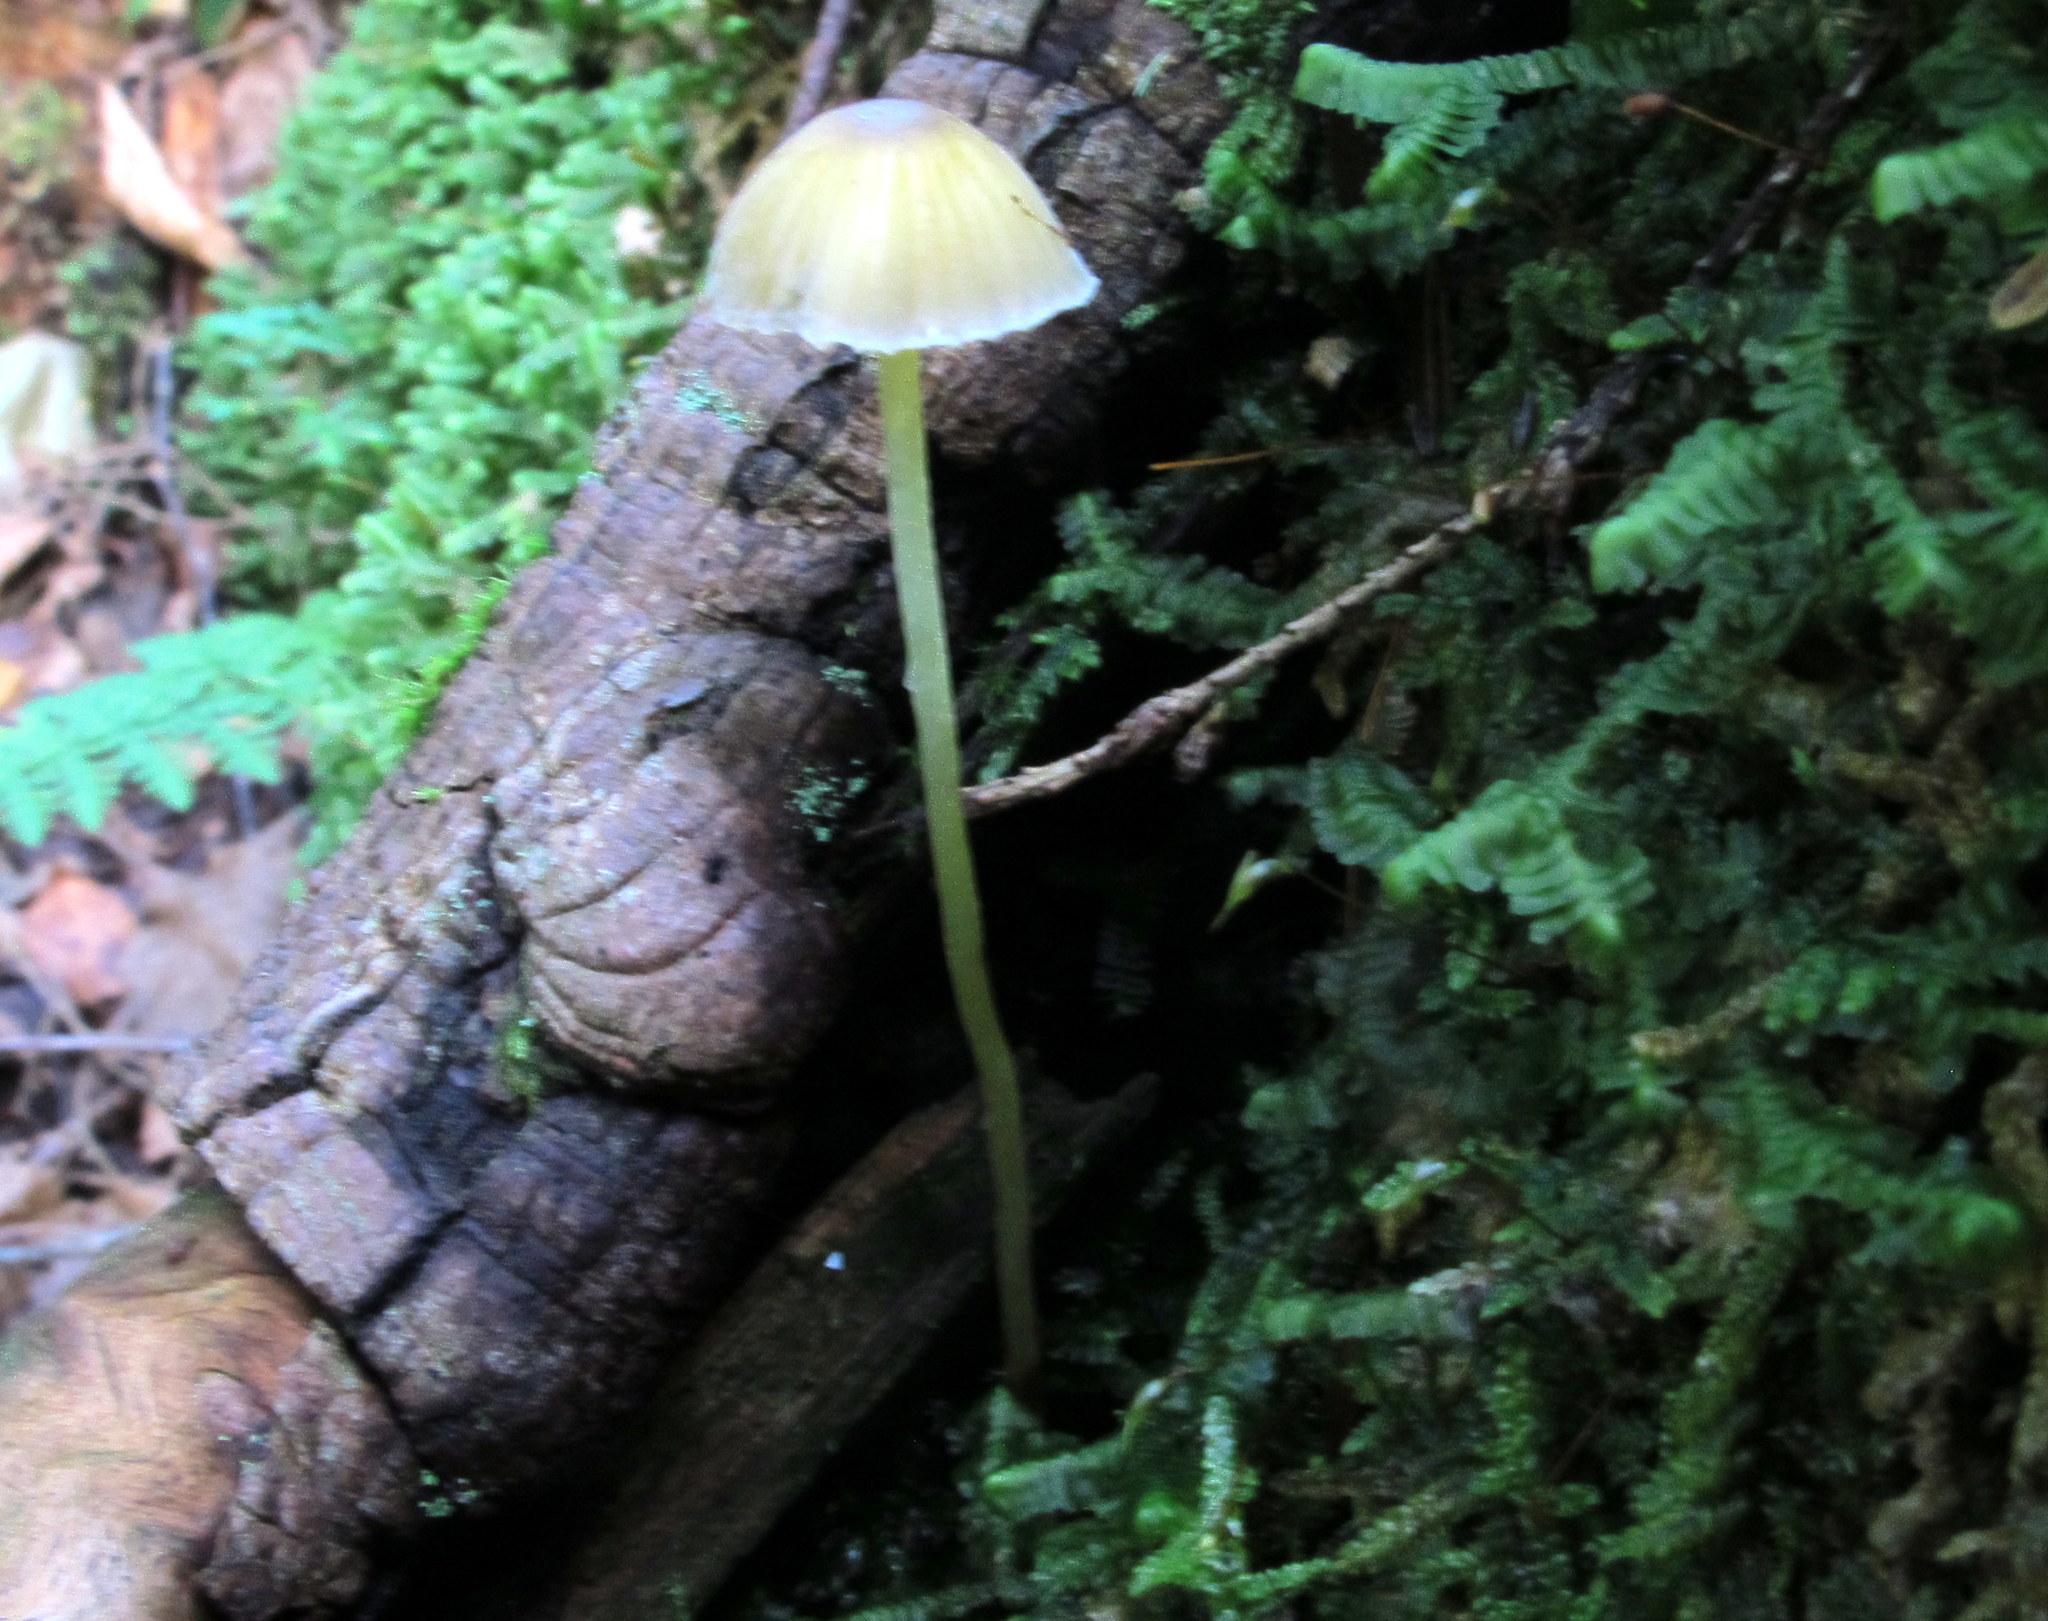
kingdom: Fungi
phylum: Basidiomycota
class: Agaricomycetes
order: Agaricales
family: Mycenaceae
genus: Mycena
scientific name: Mycena epipterygia
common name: Yellowleg bonnet
